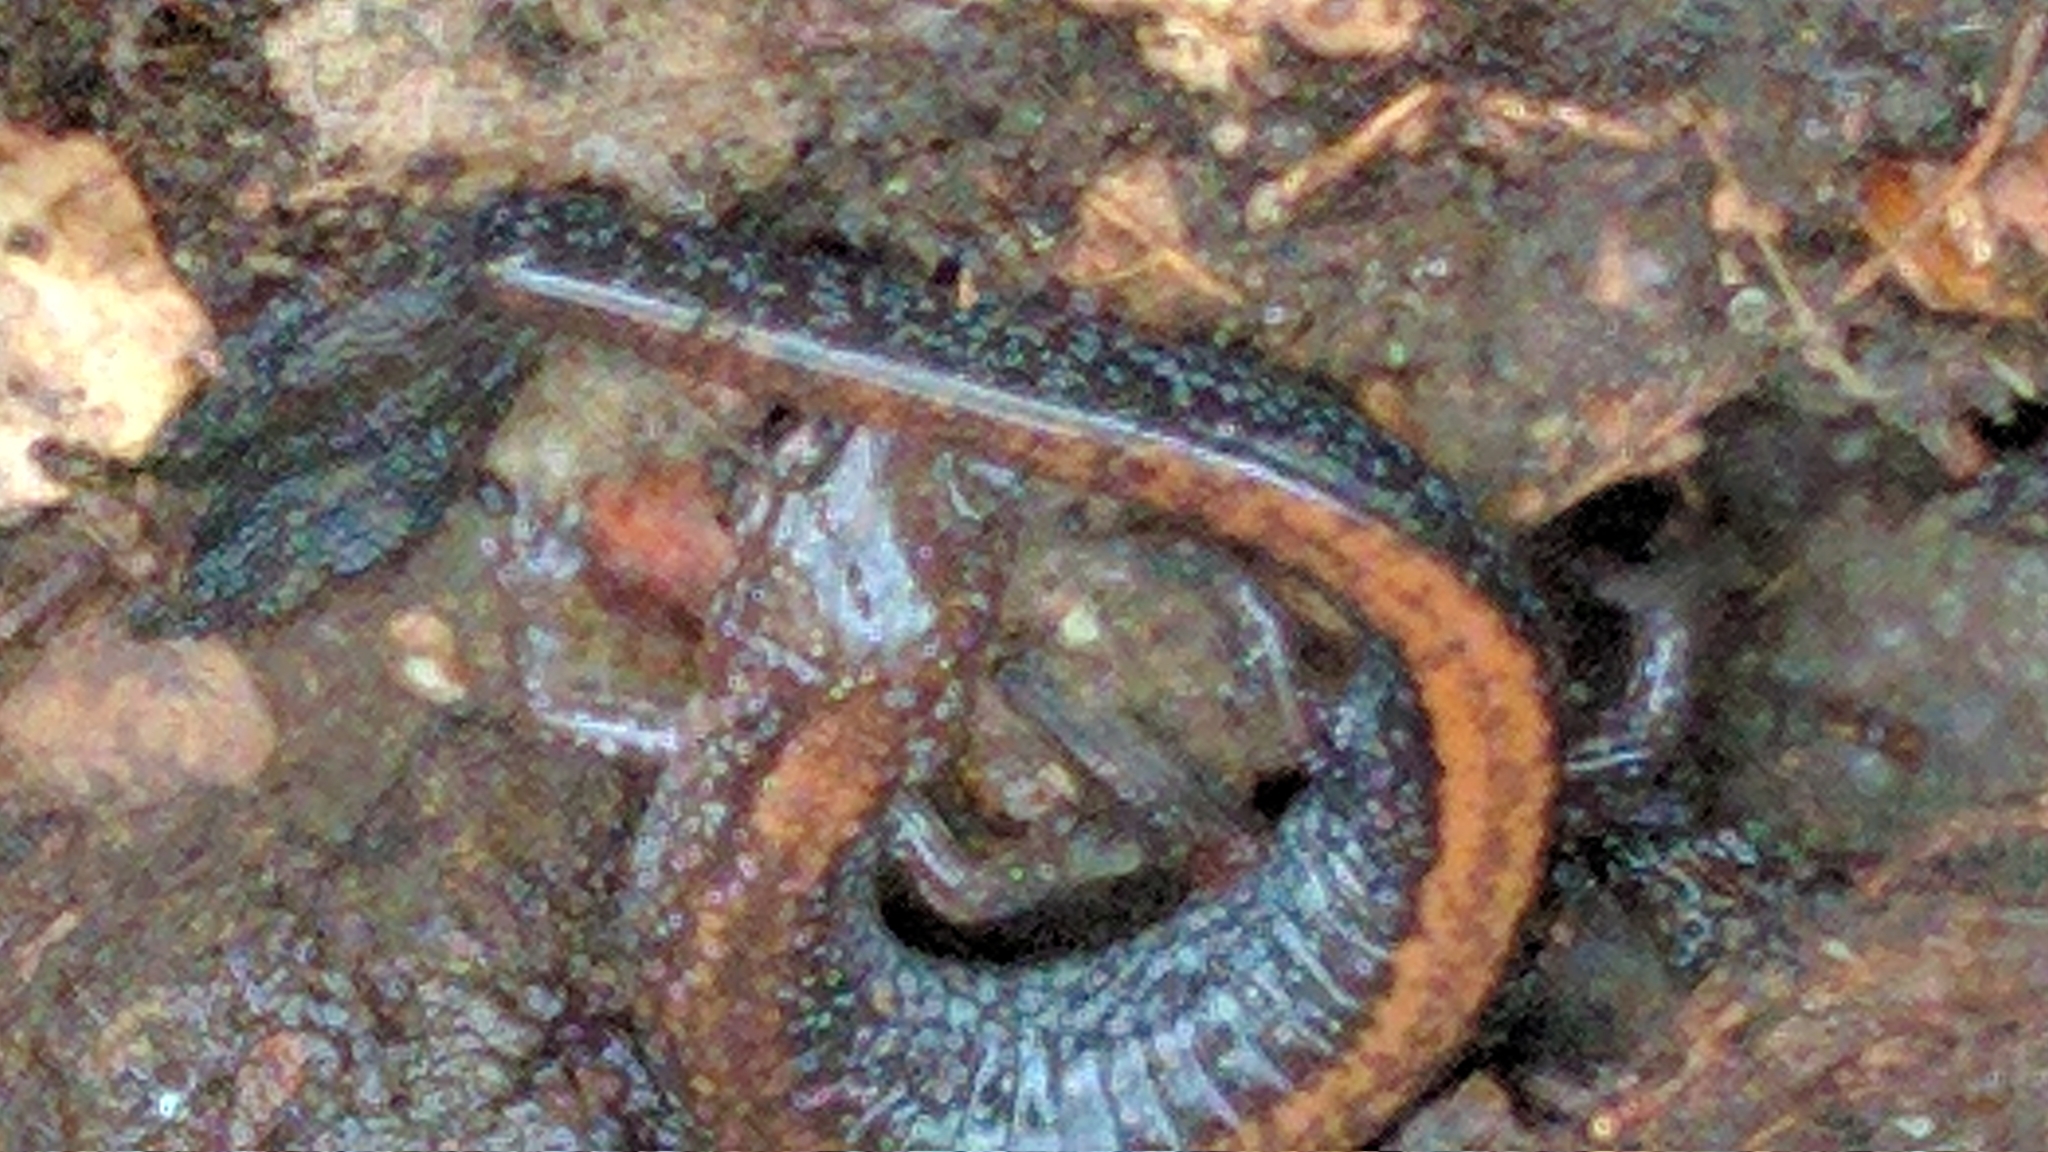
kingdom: Animalia
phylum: Chordata
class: Amphibia
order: Caudata
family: Plethodontidae
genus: Plethodon
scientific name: Plethodon cinereus
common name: Redback salamander
